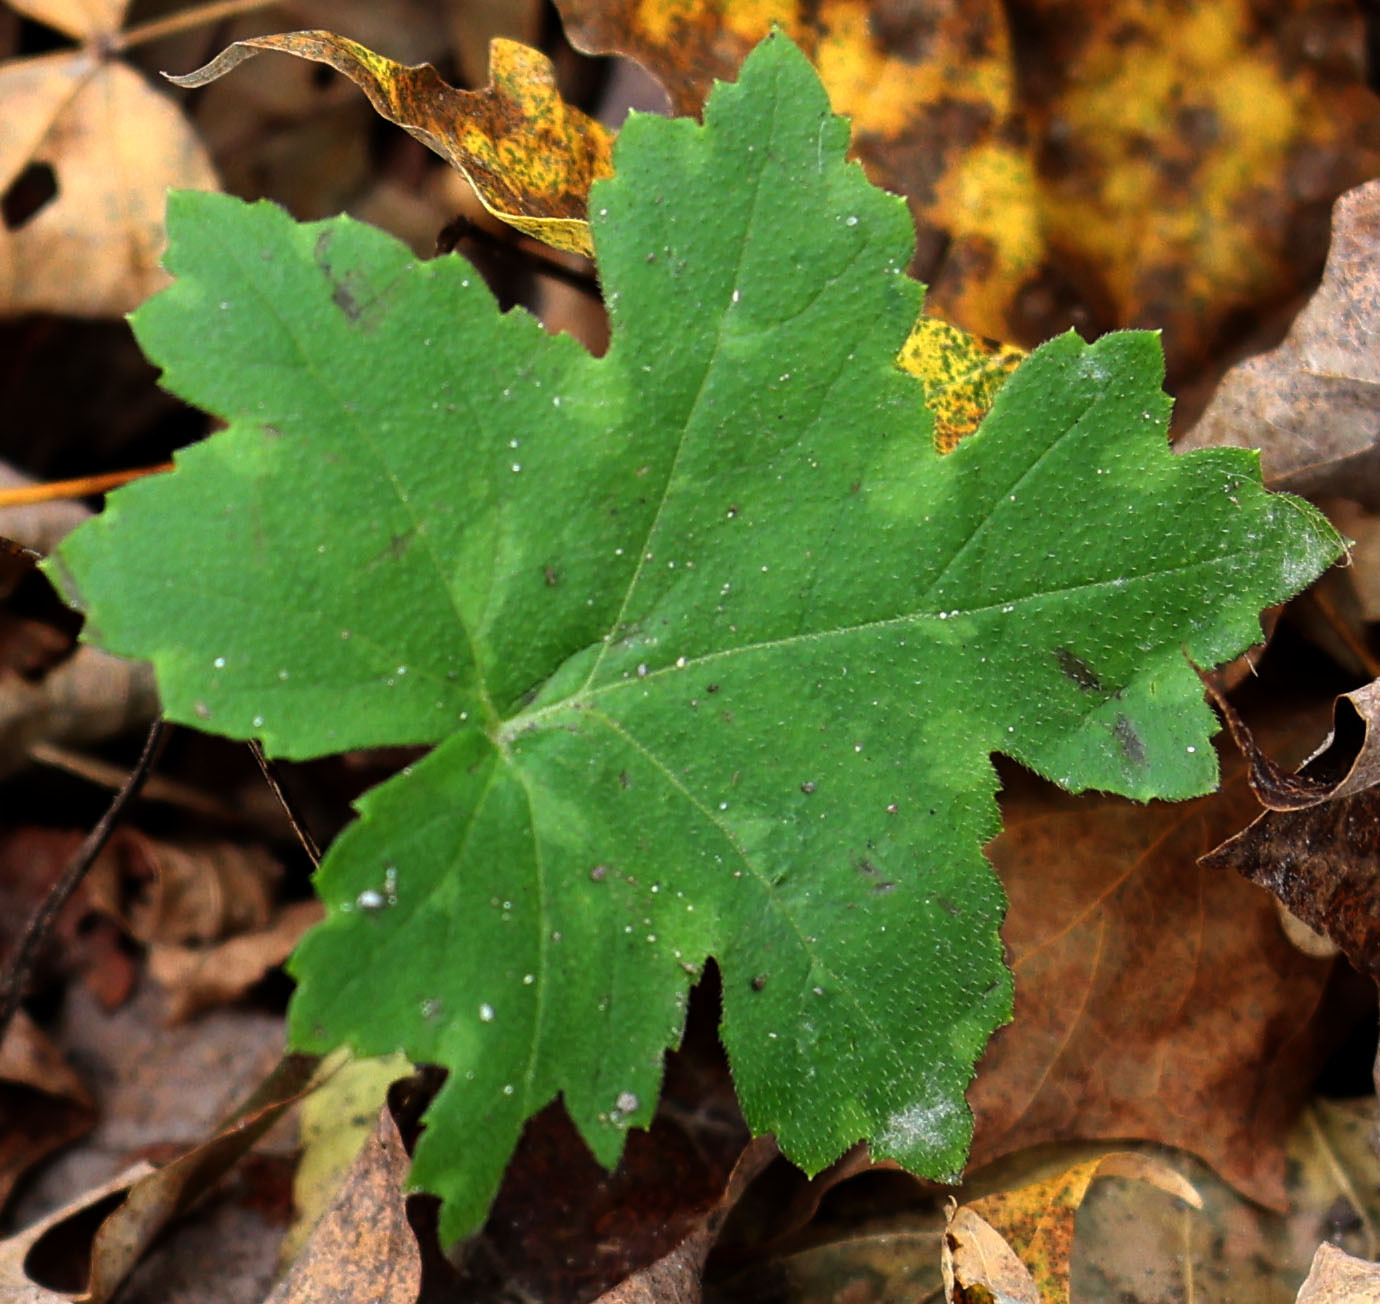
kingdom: Plantae
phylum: Tracheophyta
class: Magnoliopsida
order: Boraginales
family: Hydrophyllaceae
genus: Hydrophyllum
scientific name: Hydrophyllum canadense
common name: Canada waterleaf
